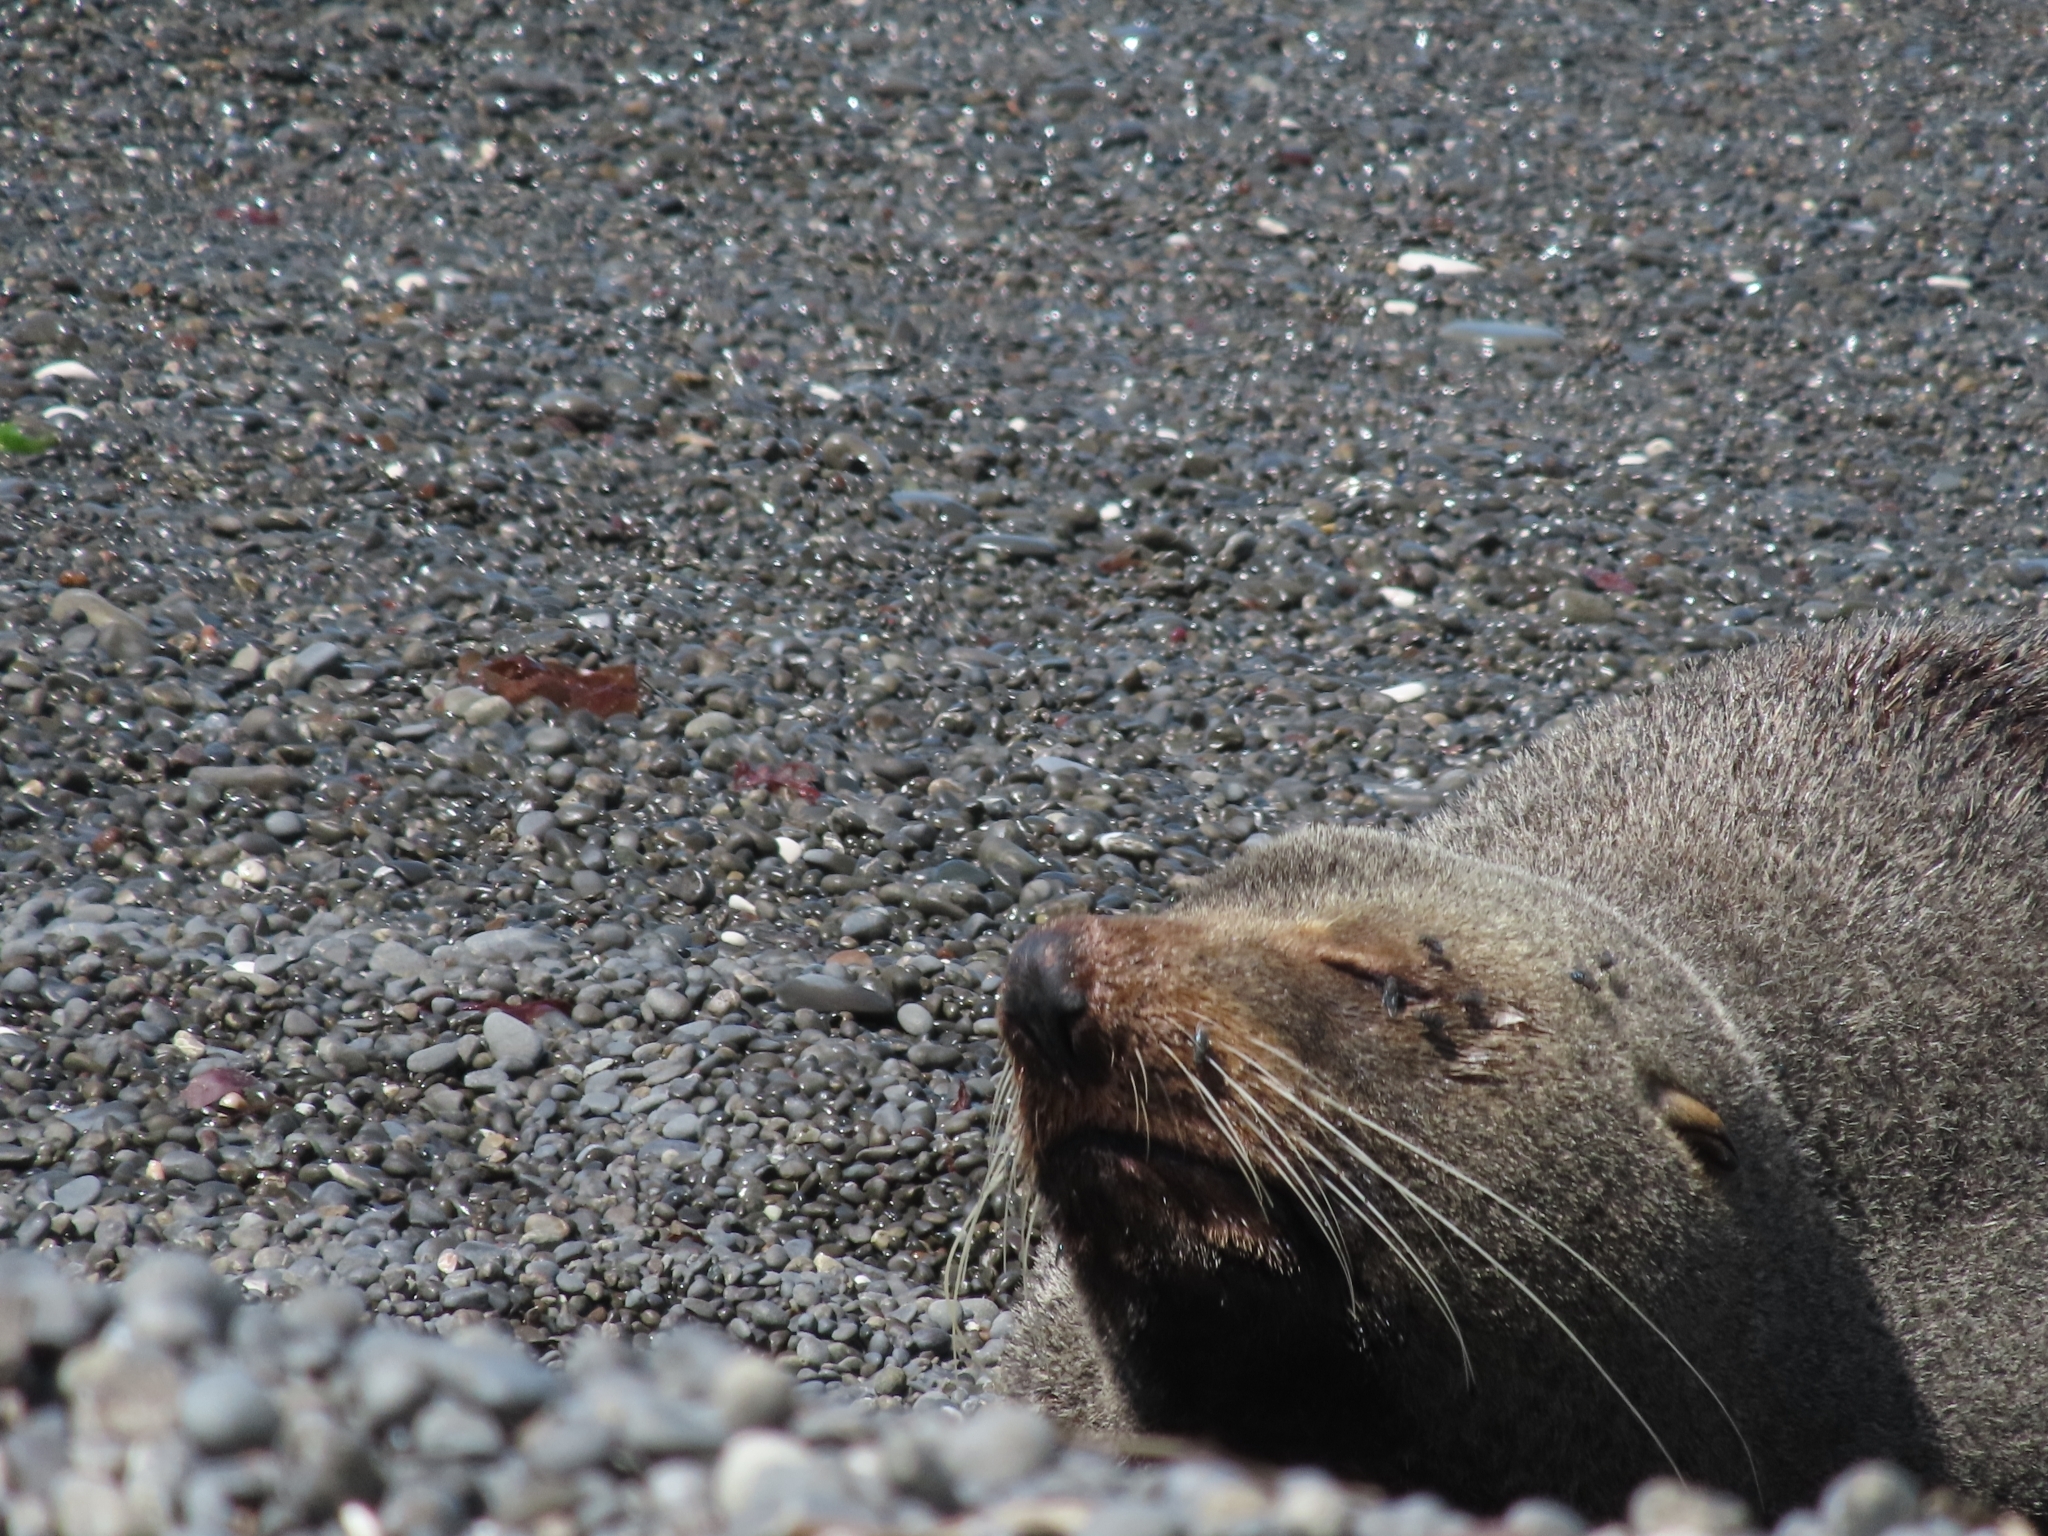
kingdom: Animalia
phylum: Chordata
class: Mammalia
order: Carnivora
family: Otariidae
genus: Arctocephalus
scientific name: Arctocephalus forsteri
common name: New zealand fur seal
